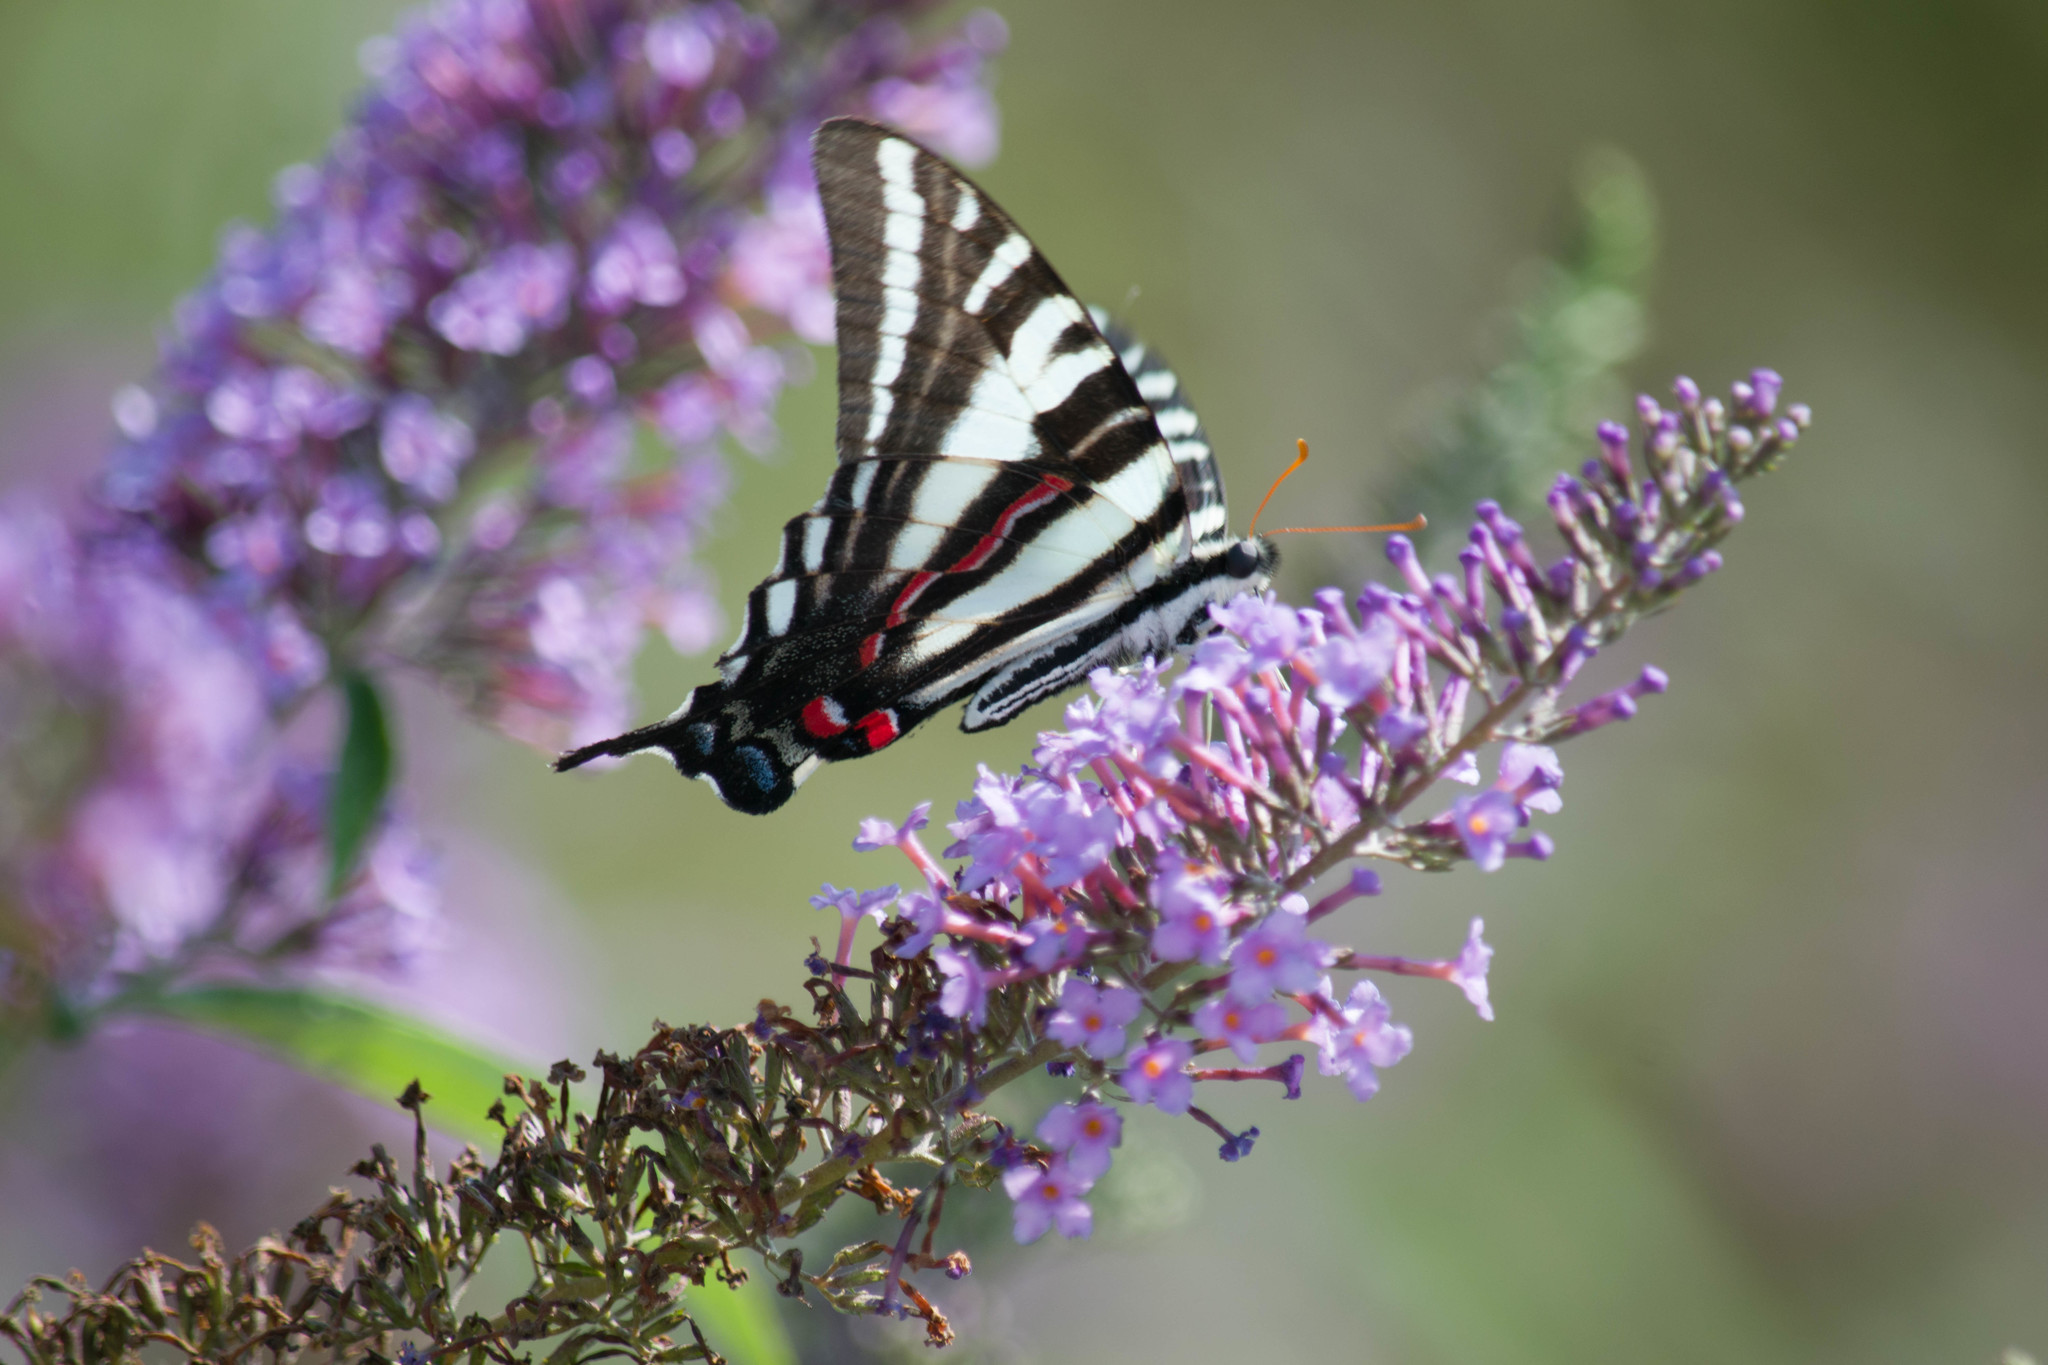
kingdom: Animalia
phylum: Arthropoda
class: Insecta
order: Lepidoptera
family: Papilionidae
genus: Protographium
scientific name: Protographium marcellus
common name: Zebra swallowtail
